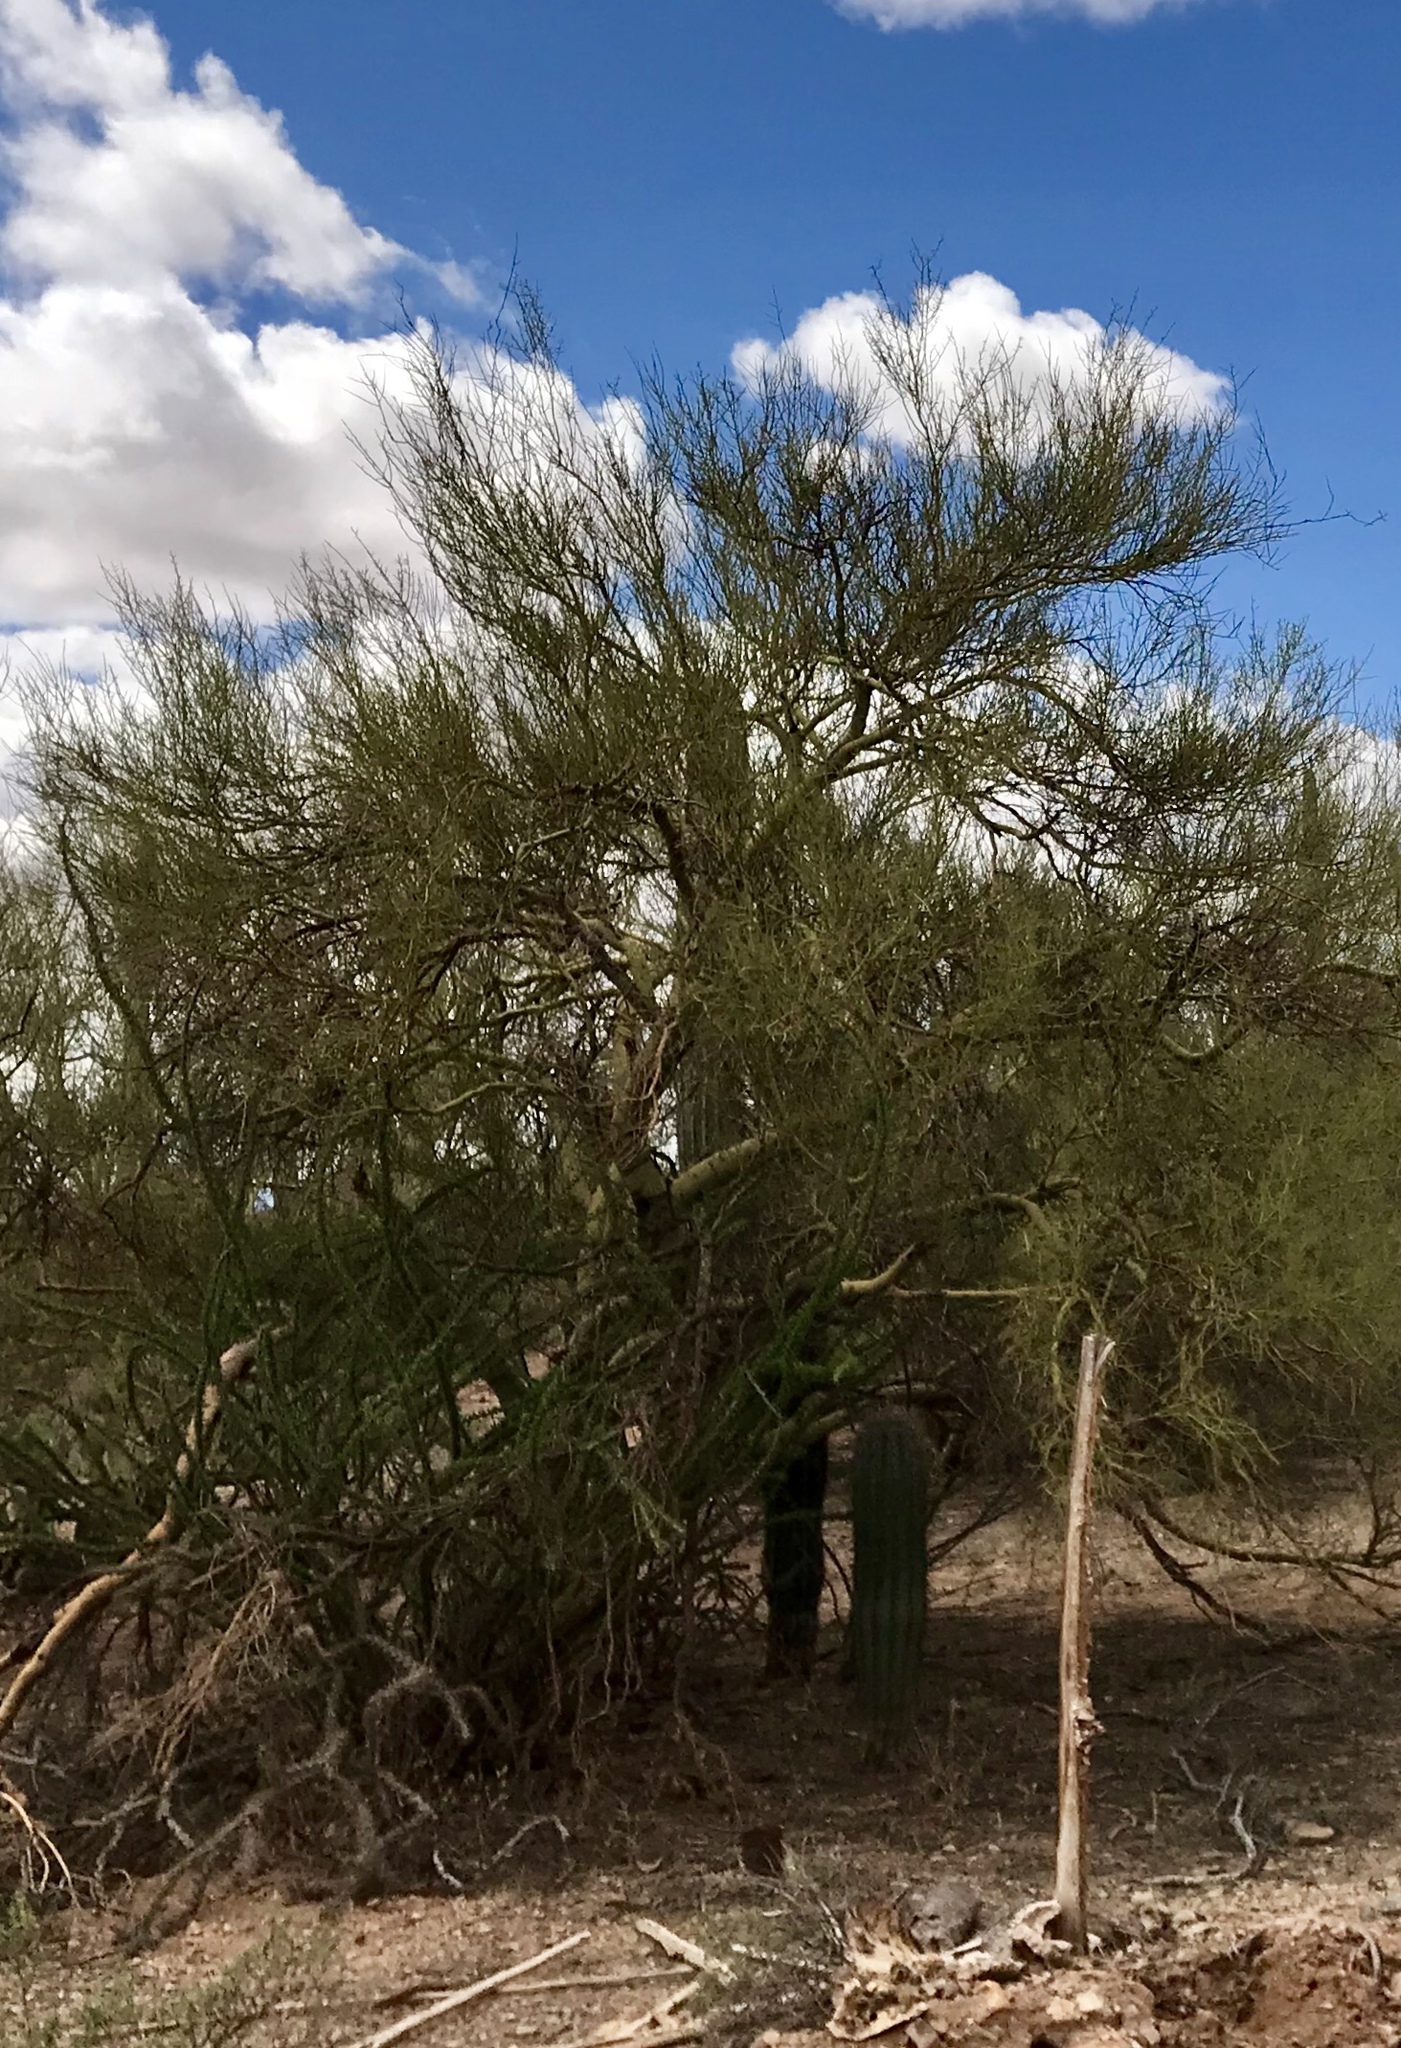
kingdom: Plantae
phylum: Tracheophyta
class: Magnoliopsida
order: Fabales
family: Fabaceae
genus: Parkinsonia
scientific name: Parkinsonia microphylla
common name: Yellow paloverde
